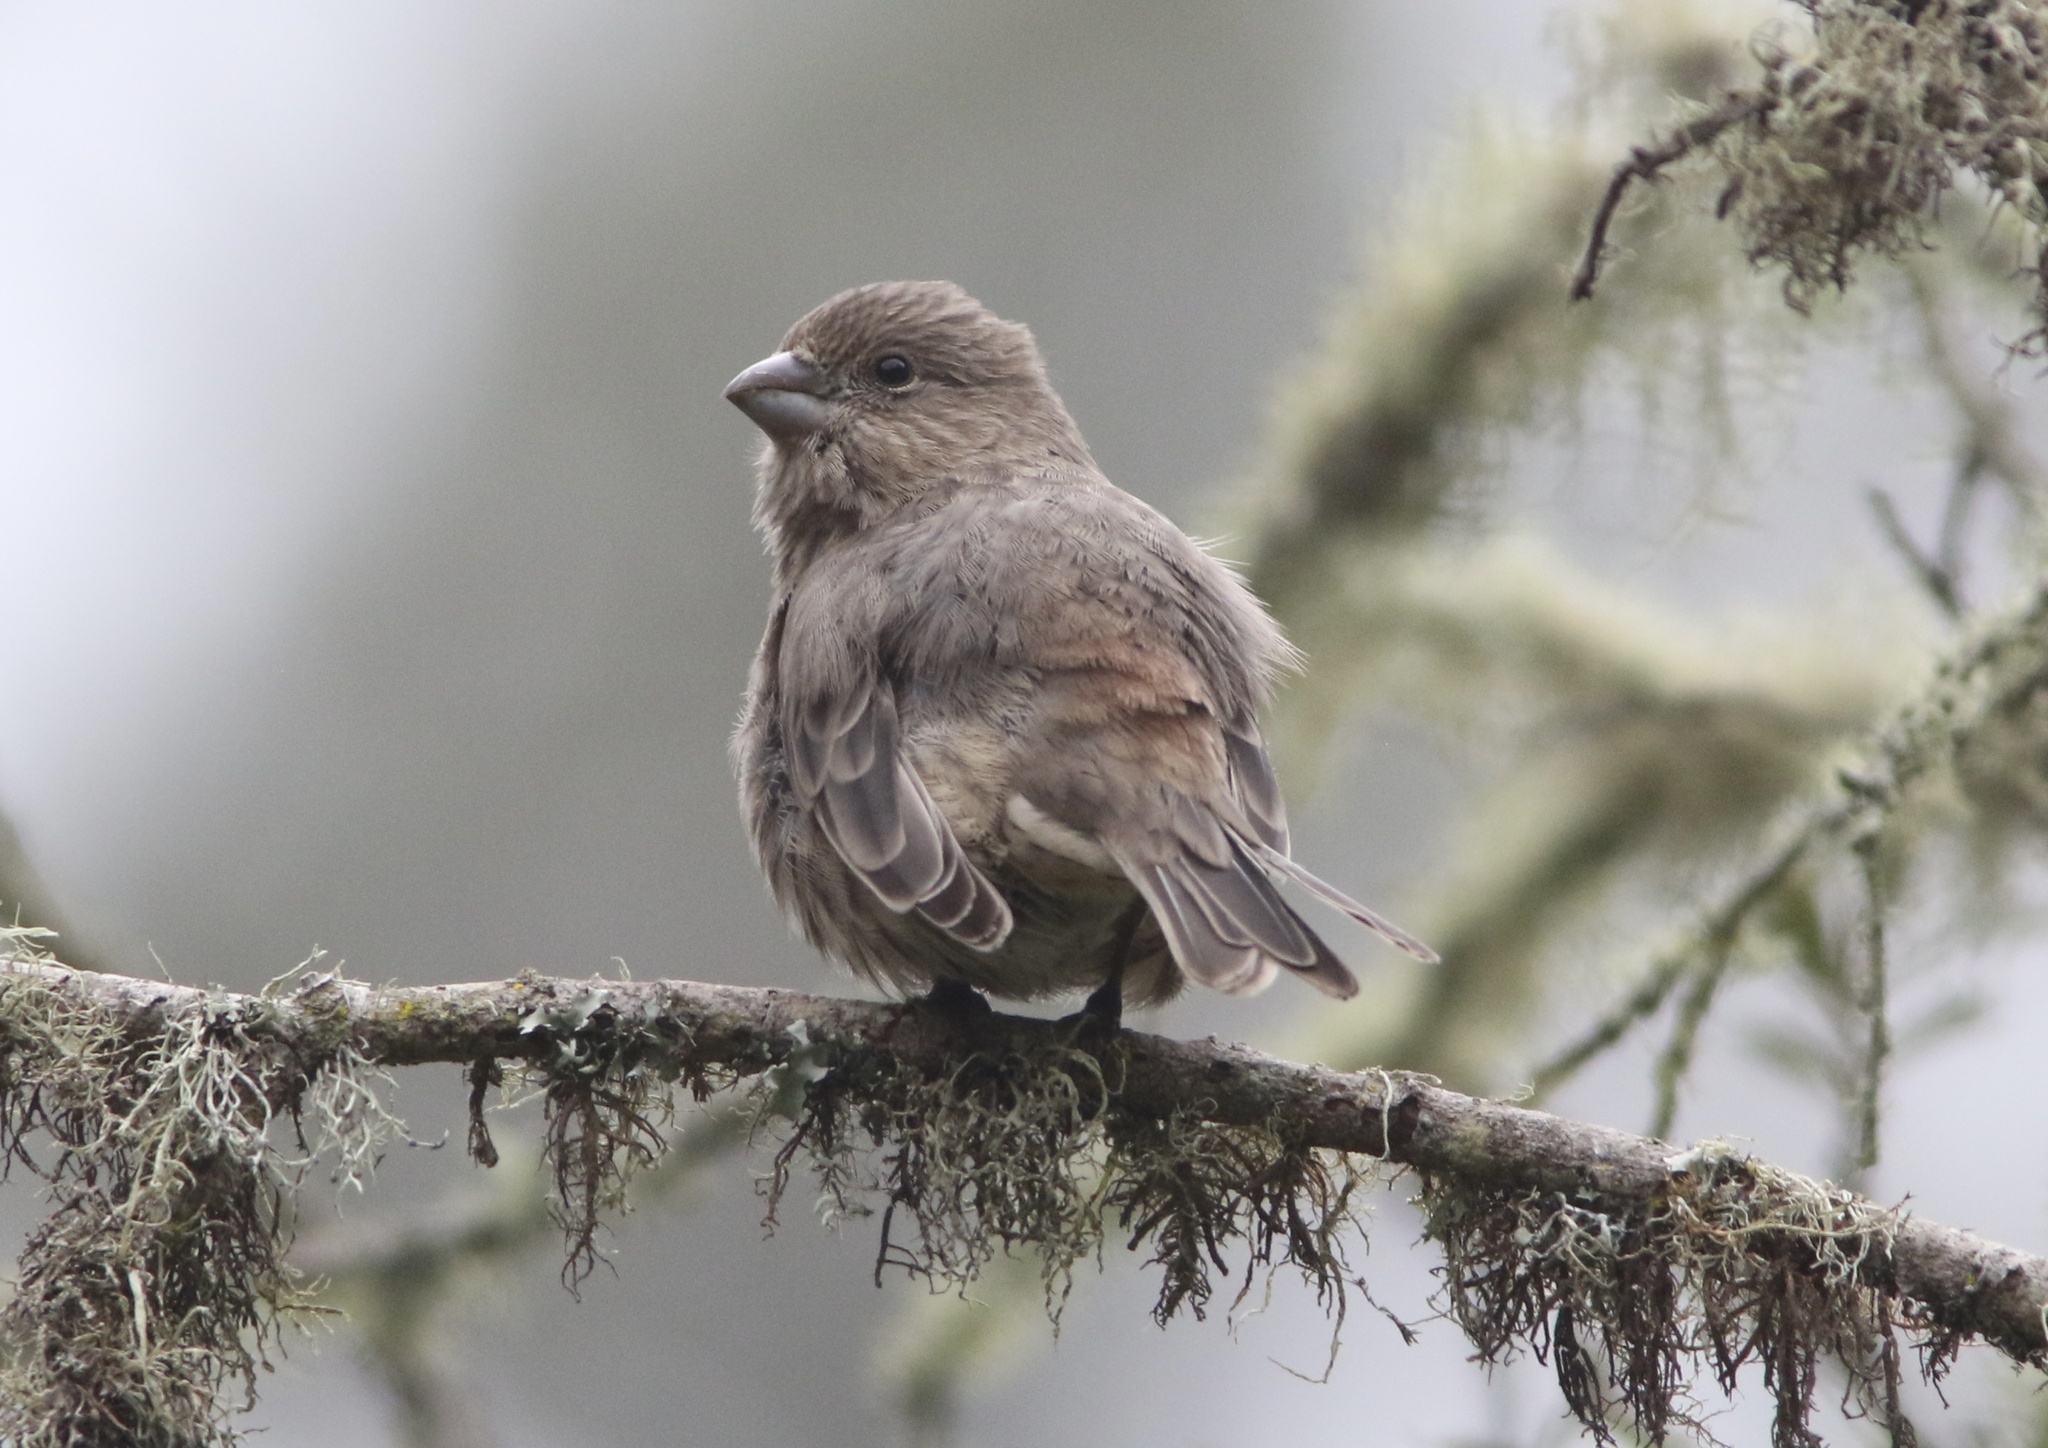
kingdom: Animalia
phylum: Chordata
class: Aves
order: Passeriformes
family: Fringillidae
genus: Haemorhous
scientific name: Haemorhous mexicanus
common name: House finch
